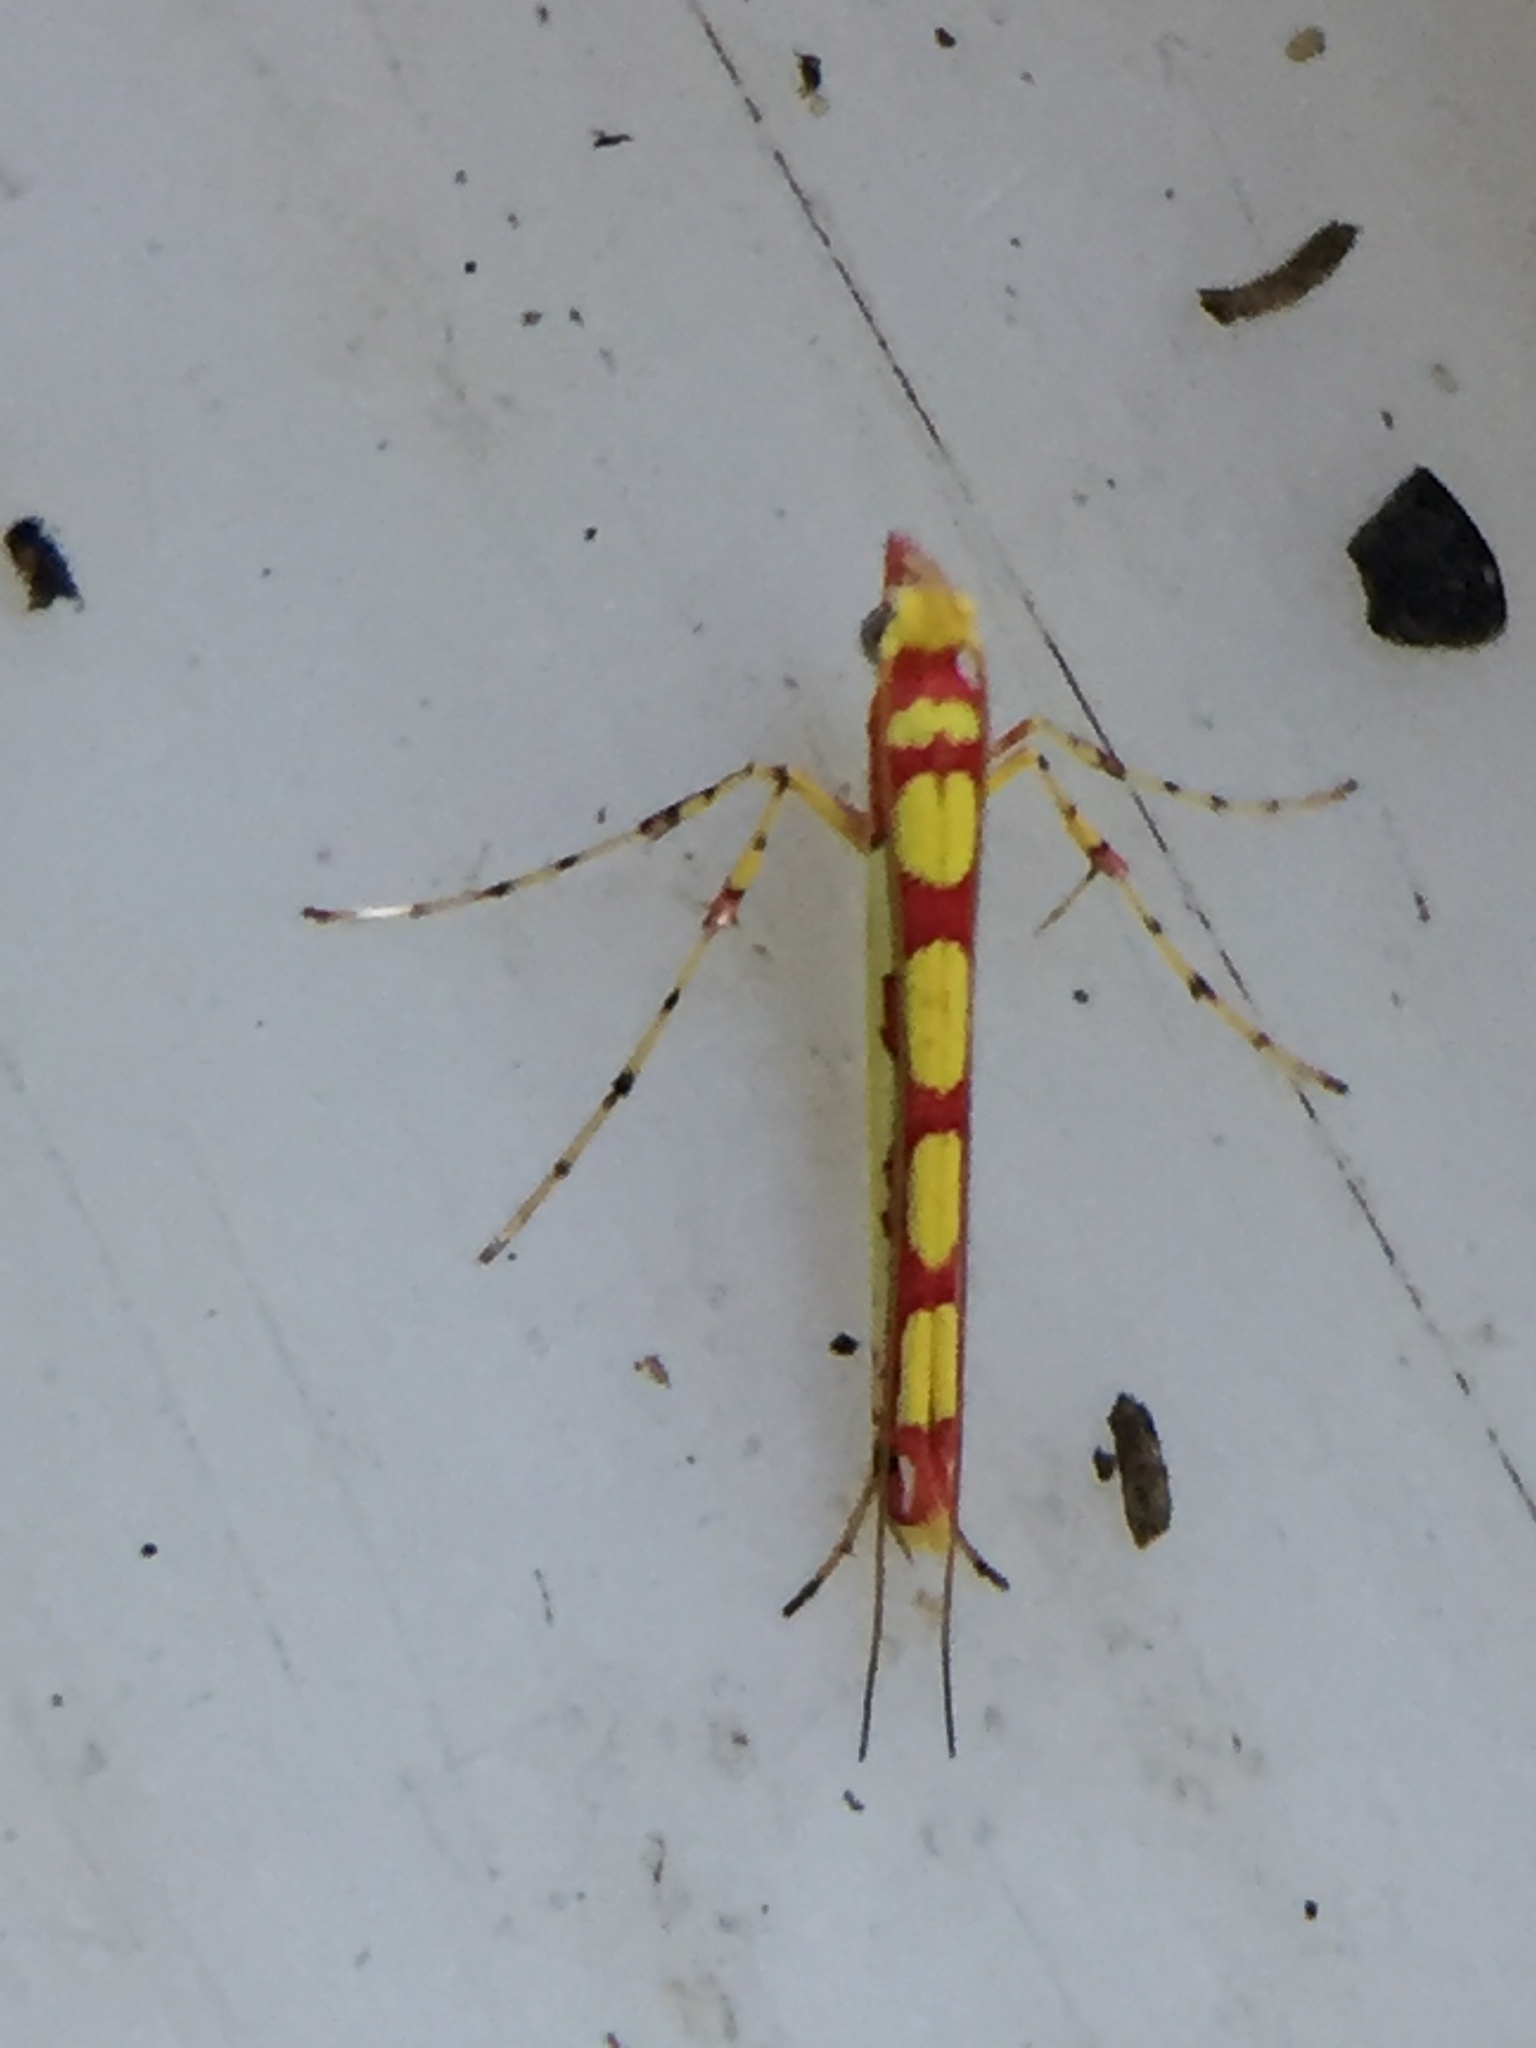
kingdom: Animalia
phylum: Arthropoda
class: Insecta
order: Lepidoptera
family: Gracillariidae
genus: Macarostola
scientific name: Macarostola miniella
